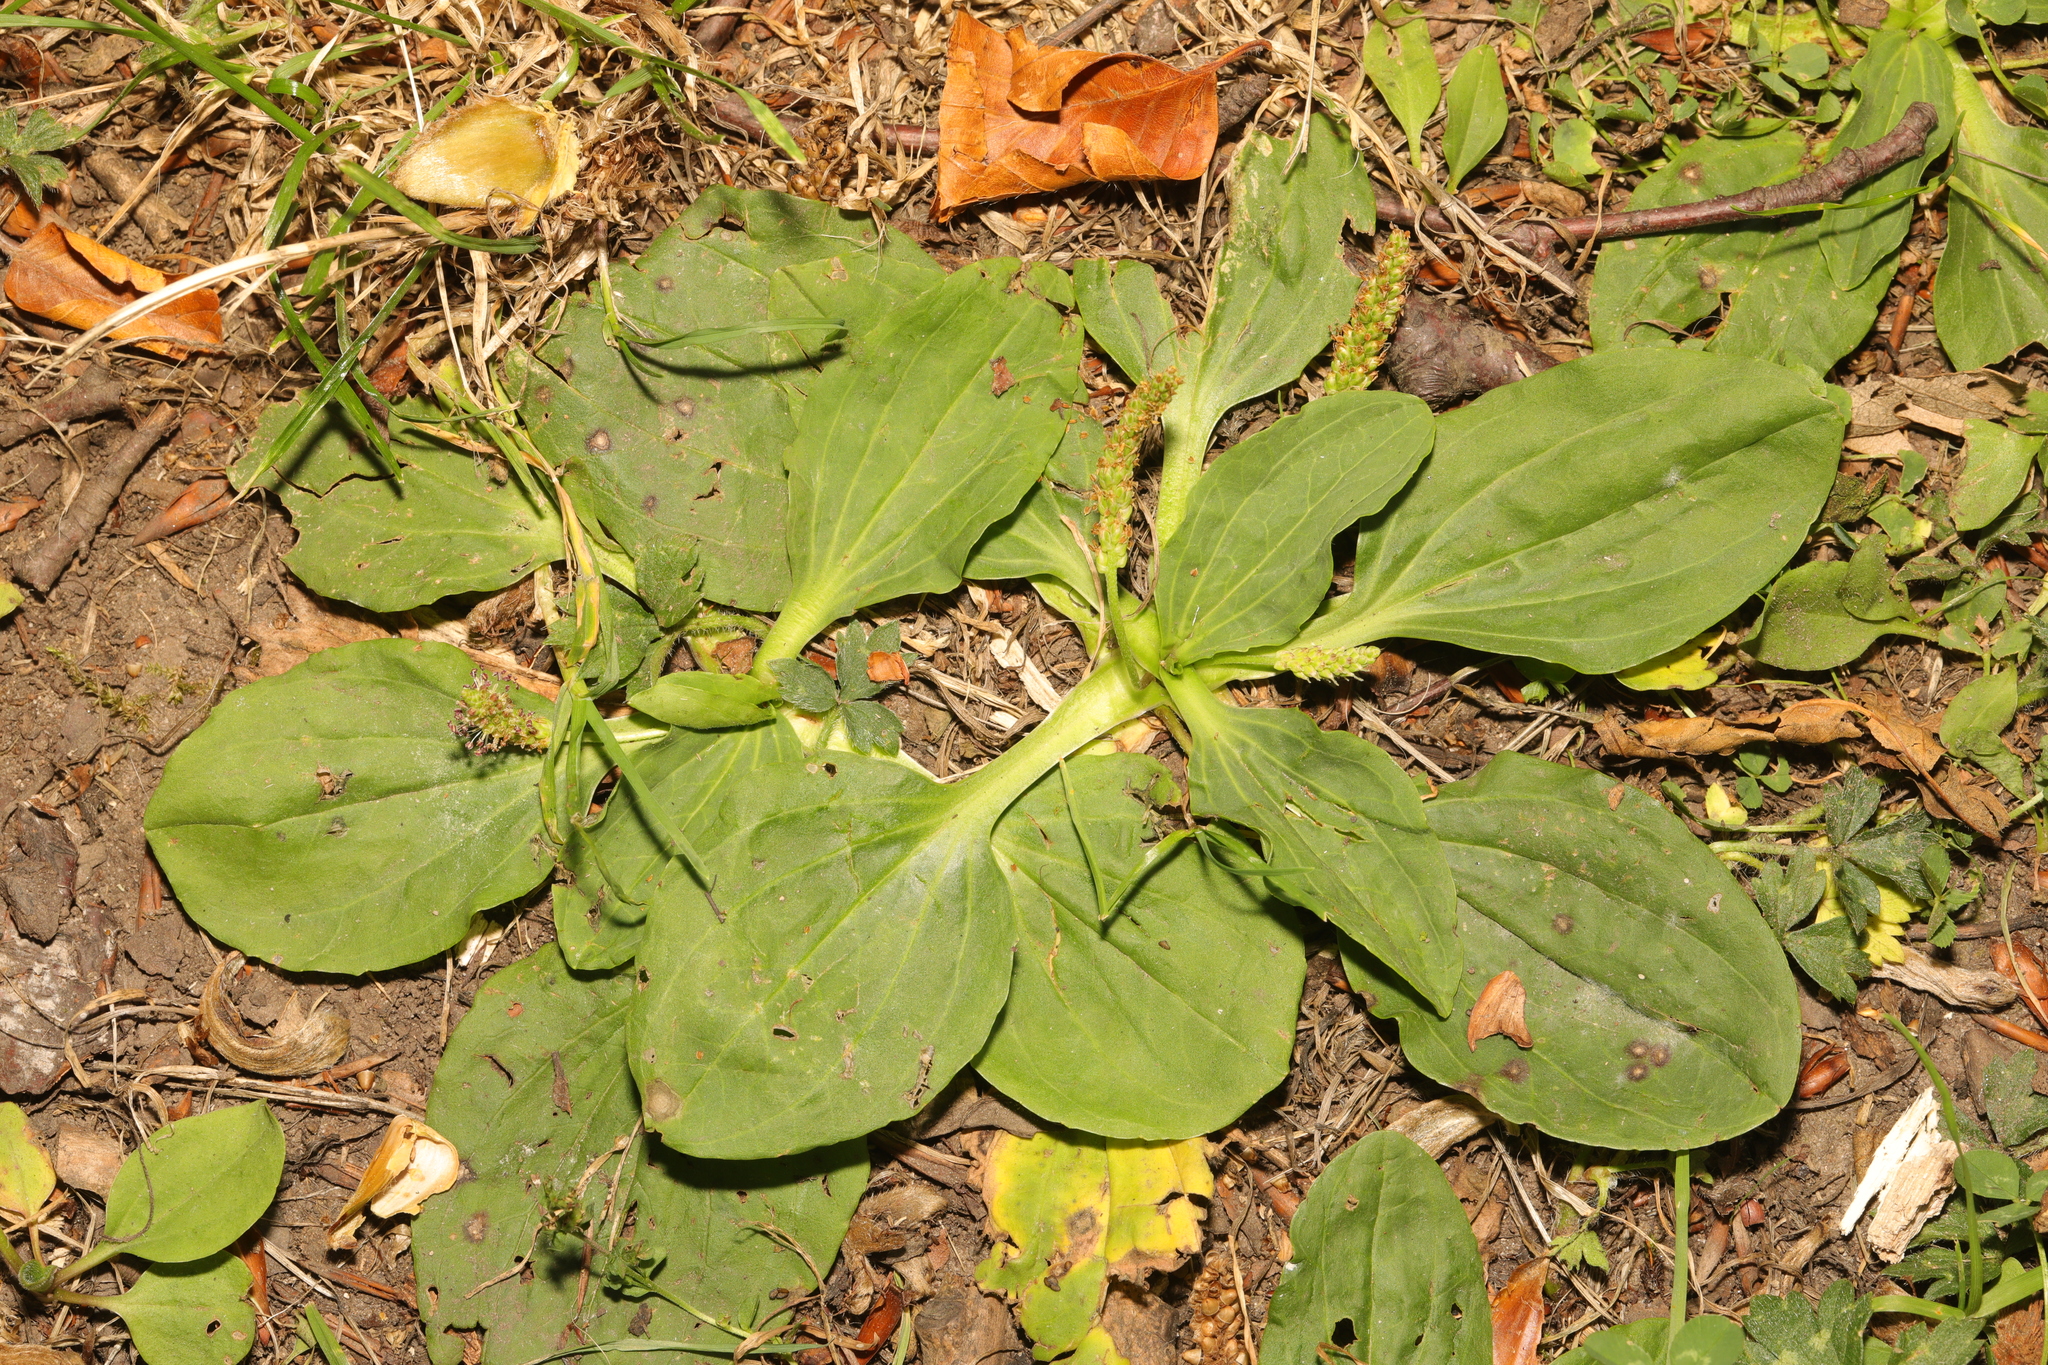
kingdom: Plantae
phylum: Tracheophyta
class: Magnoliopsida
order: Lamiales
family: Plantaginaceae
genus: Plantago
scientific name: Plantago major
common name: Common plantain
